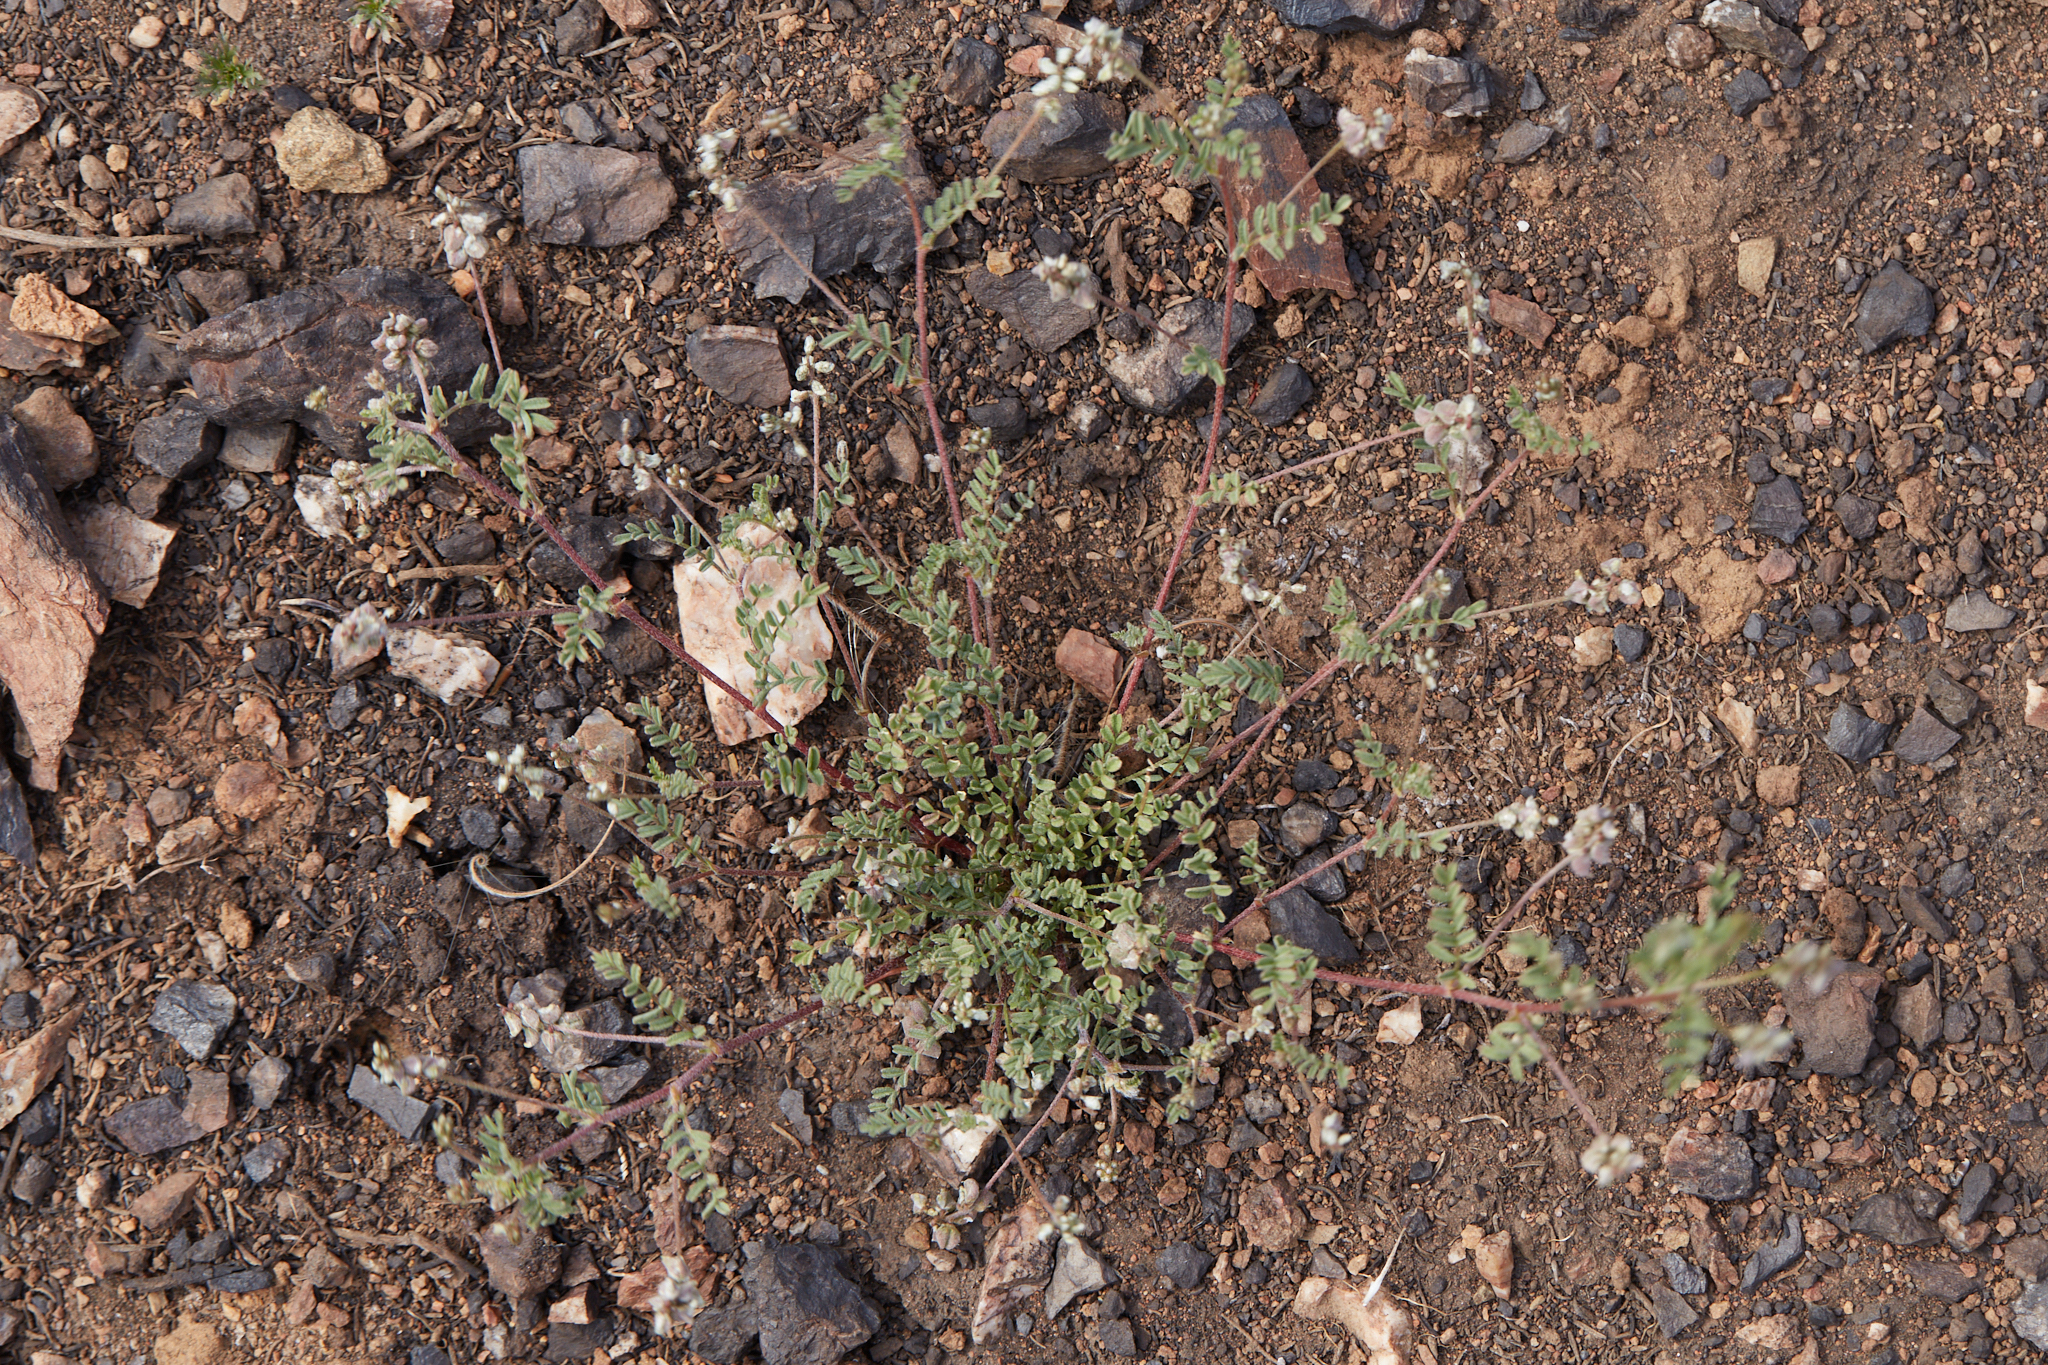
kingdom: Plantae
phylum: Tracheophyta
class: Magnoliopsida
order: Fabales
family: Fabaceae
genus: Astragalus
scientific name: Astragalus gambelianus
